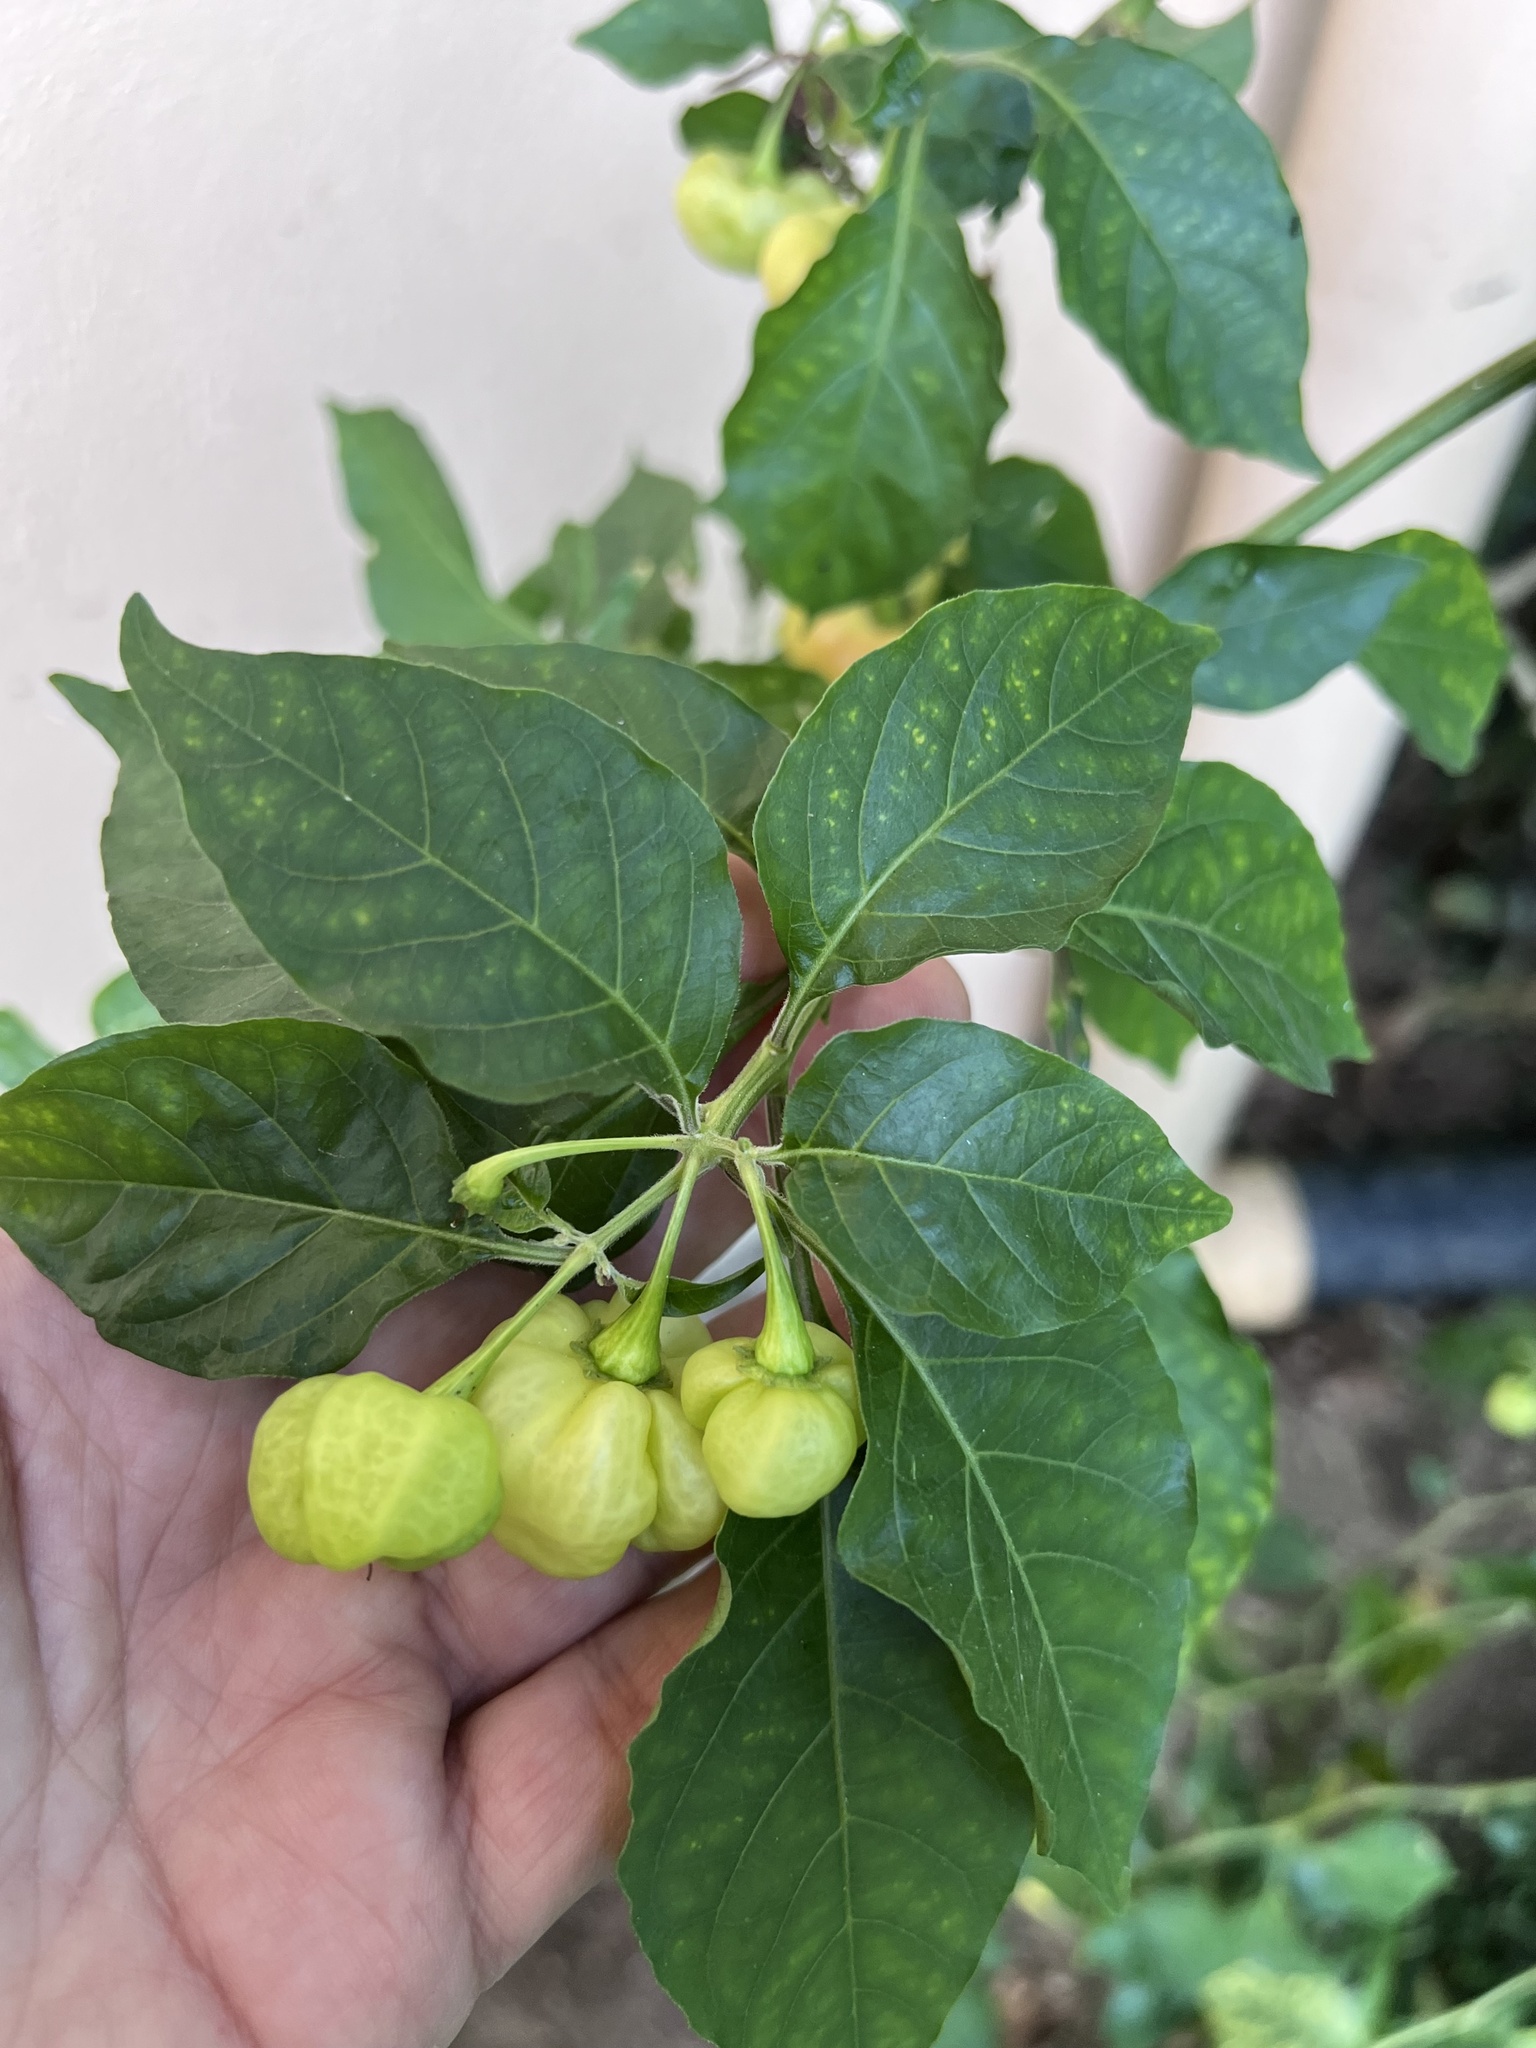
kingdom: Plantae
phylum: Tracheophyta
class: Magnoliopsida
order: Solanales
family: Solanaceae
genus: Capsicum
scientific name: Capsicum chinense
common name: Yellow squash pepper
